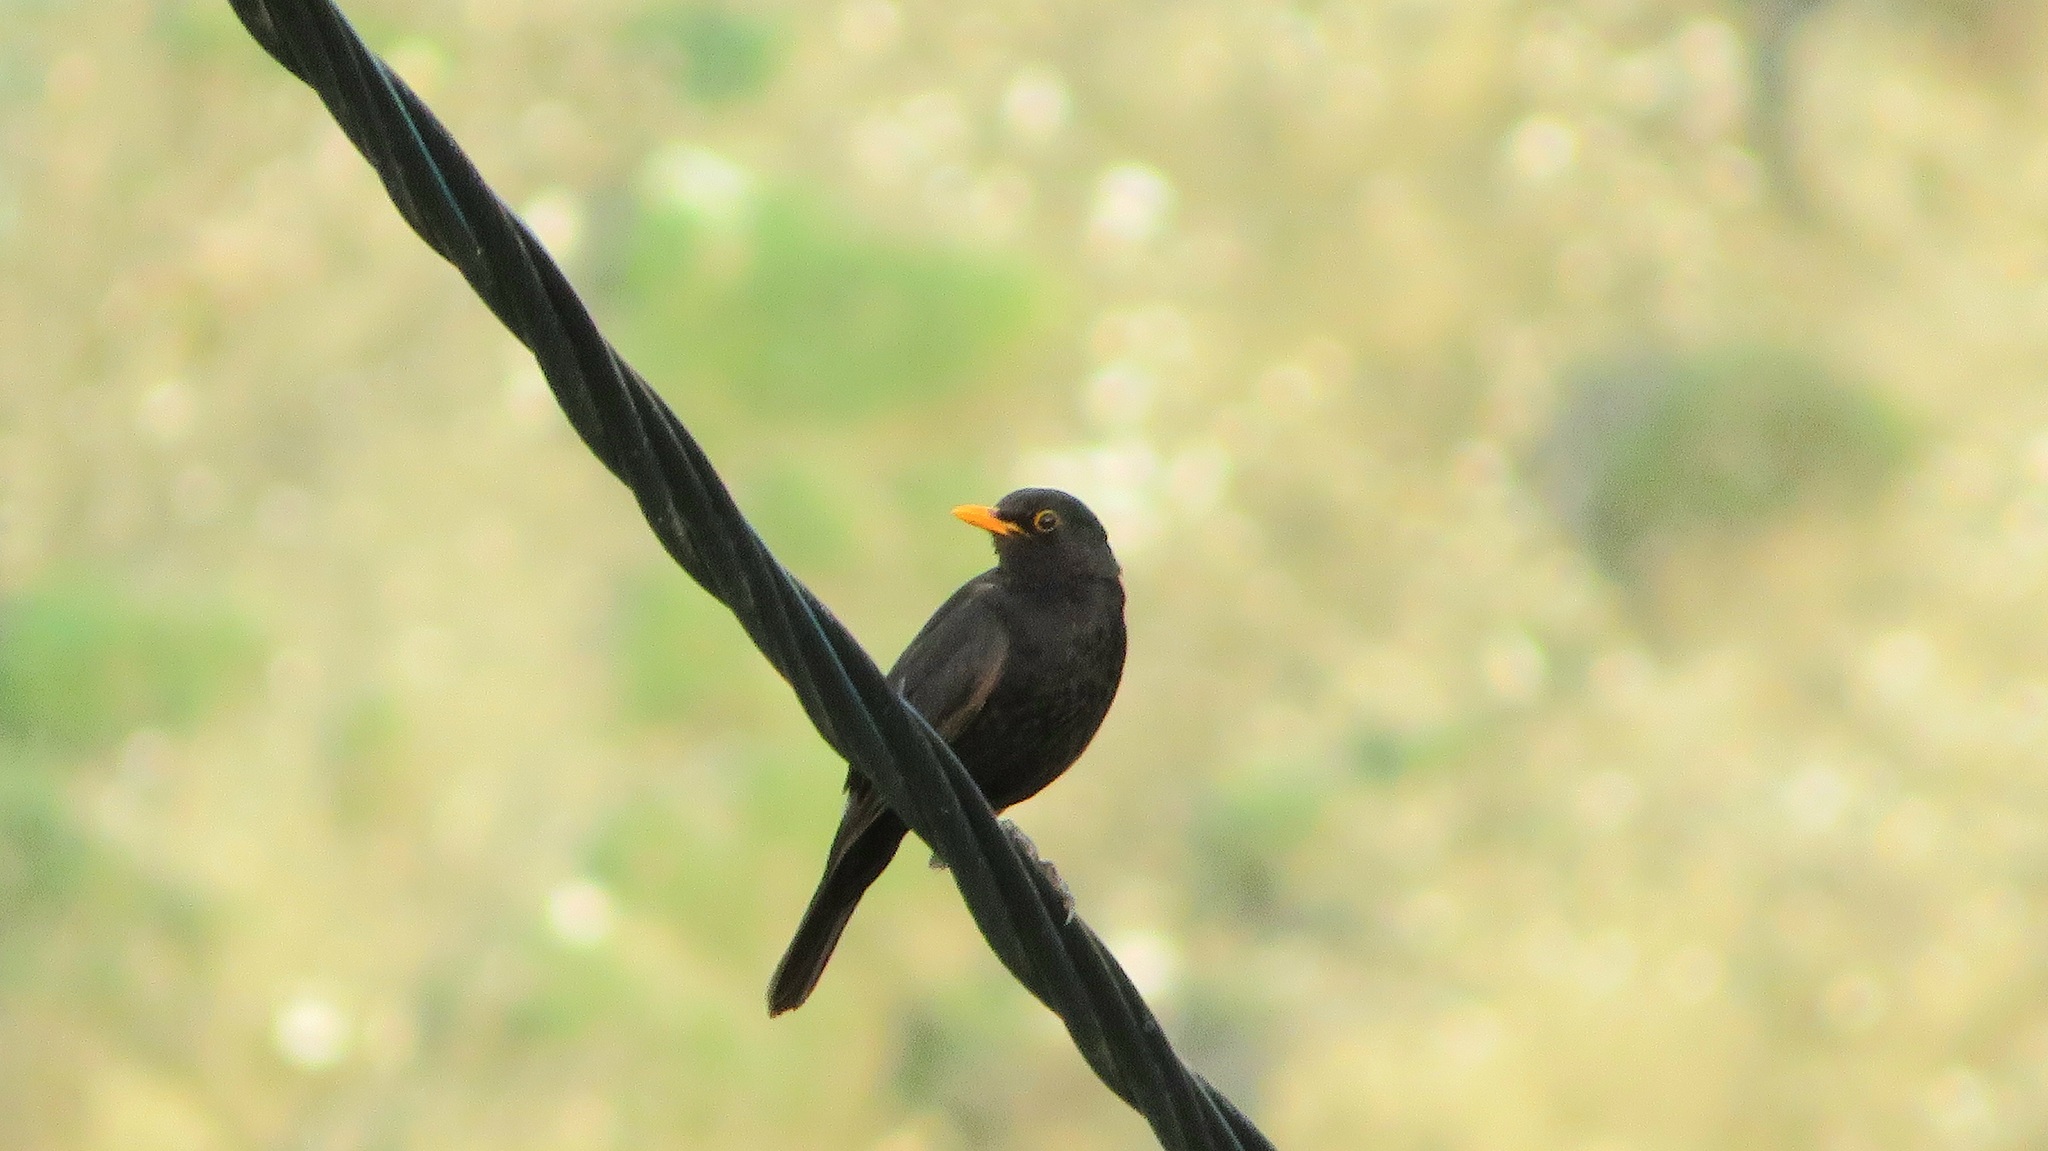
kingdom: Animalia
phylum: Chordata
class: Aves
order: Passeriformes
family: Turdidae
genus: Turdus
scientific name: Turdus merula
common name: Common blackbird
